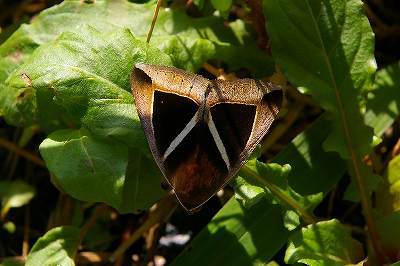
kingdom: Animalia
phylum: Arthropoda
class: Insecta
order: Lepidoptera
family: Erebidae
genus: Chalciope
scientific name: Chalciope mygdon
